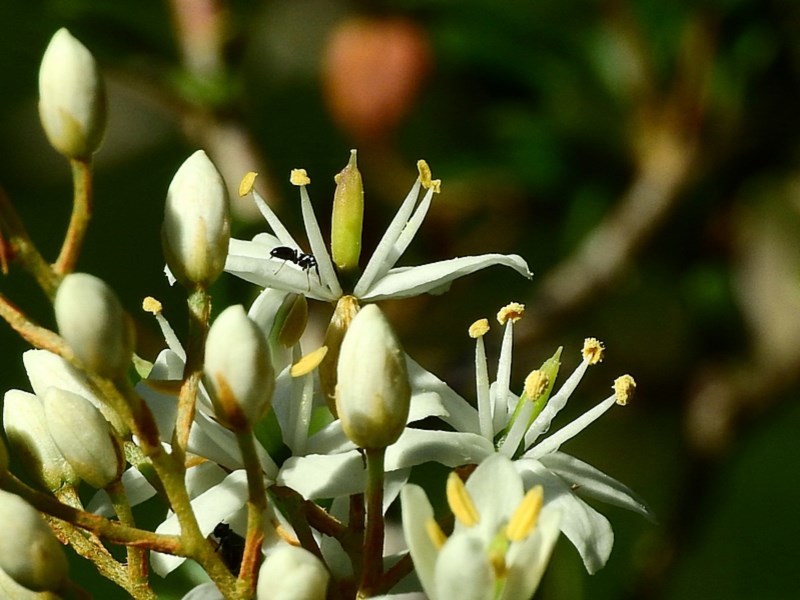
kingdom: Plantae
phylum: Tracheophyta
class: Magnoliopsida
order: Apiales
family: Pittosporaceae
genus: Bursaria
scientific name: Bursaria spinosa
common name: Australian blackthorn
